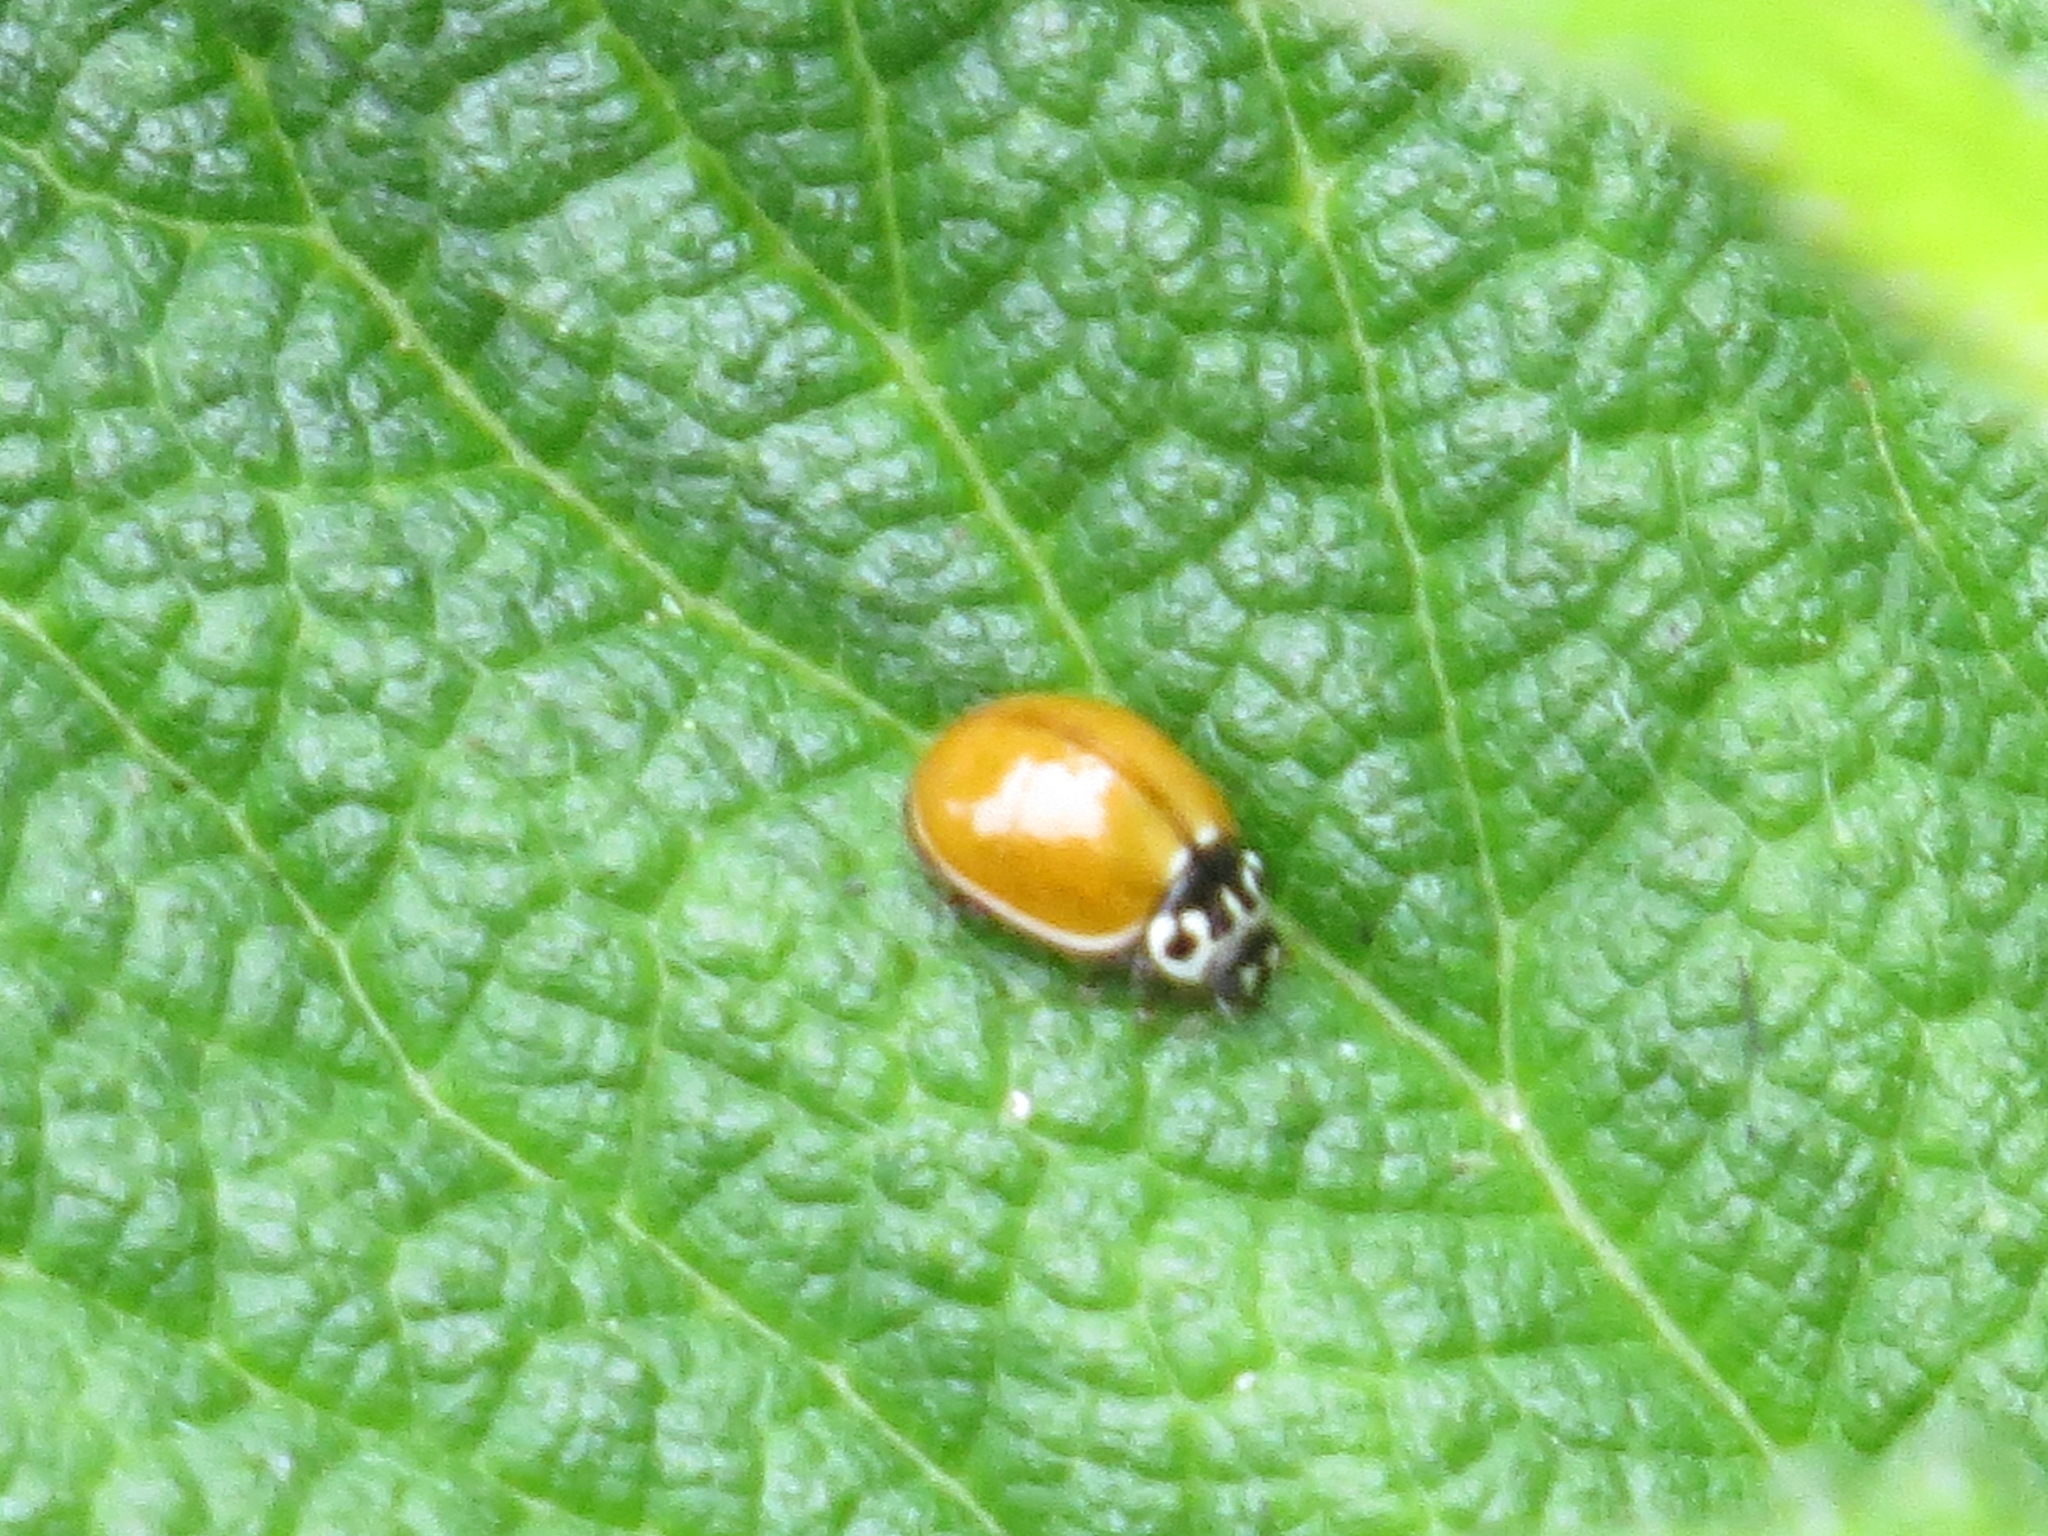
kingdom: Animalia
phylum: Arthropoda
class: Insecta
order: Coleoptera
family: Coccinellidae
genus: Cycloneda
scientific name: Cycloneda polita
